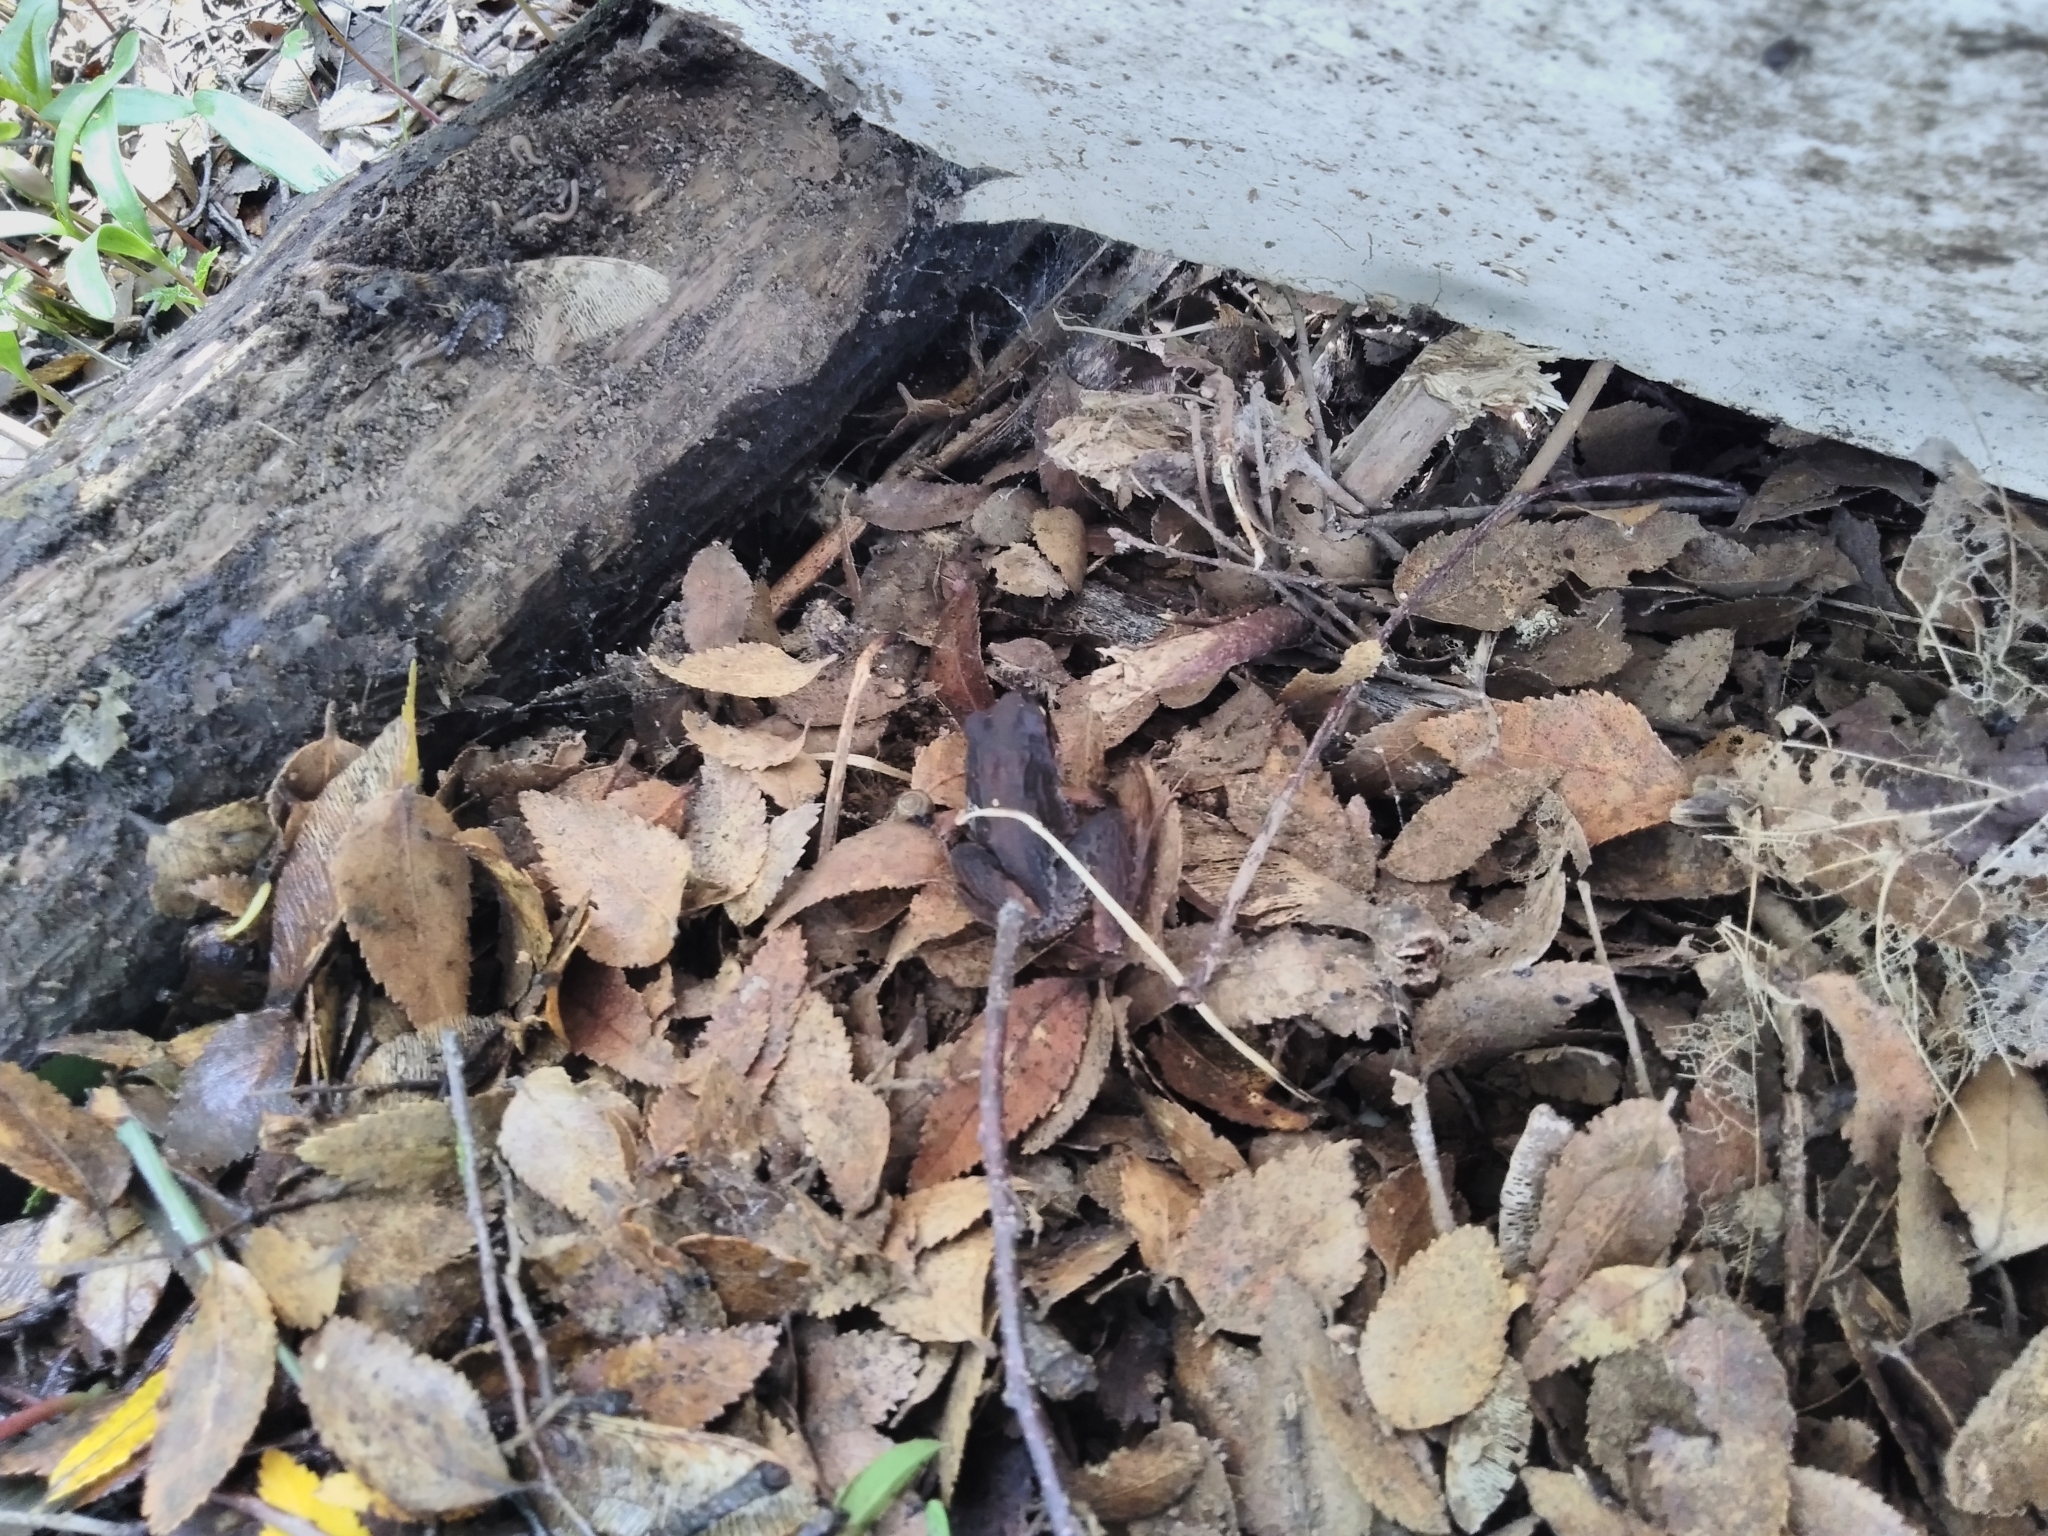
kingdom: Animalia
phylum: Chordata
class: Amphibia
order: Anura
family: Batrachylidae
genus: Batrachyla
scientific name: Batrachyla taeniata
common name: Banded wood frog
